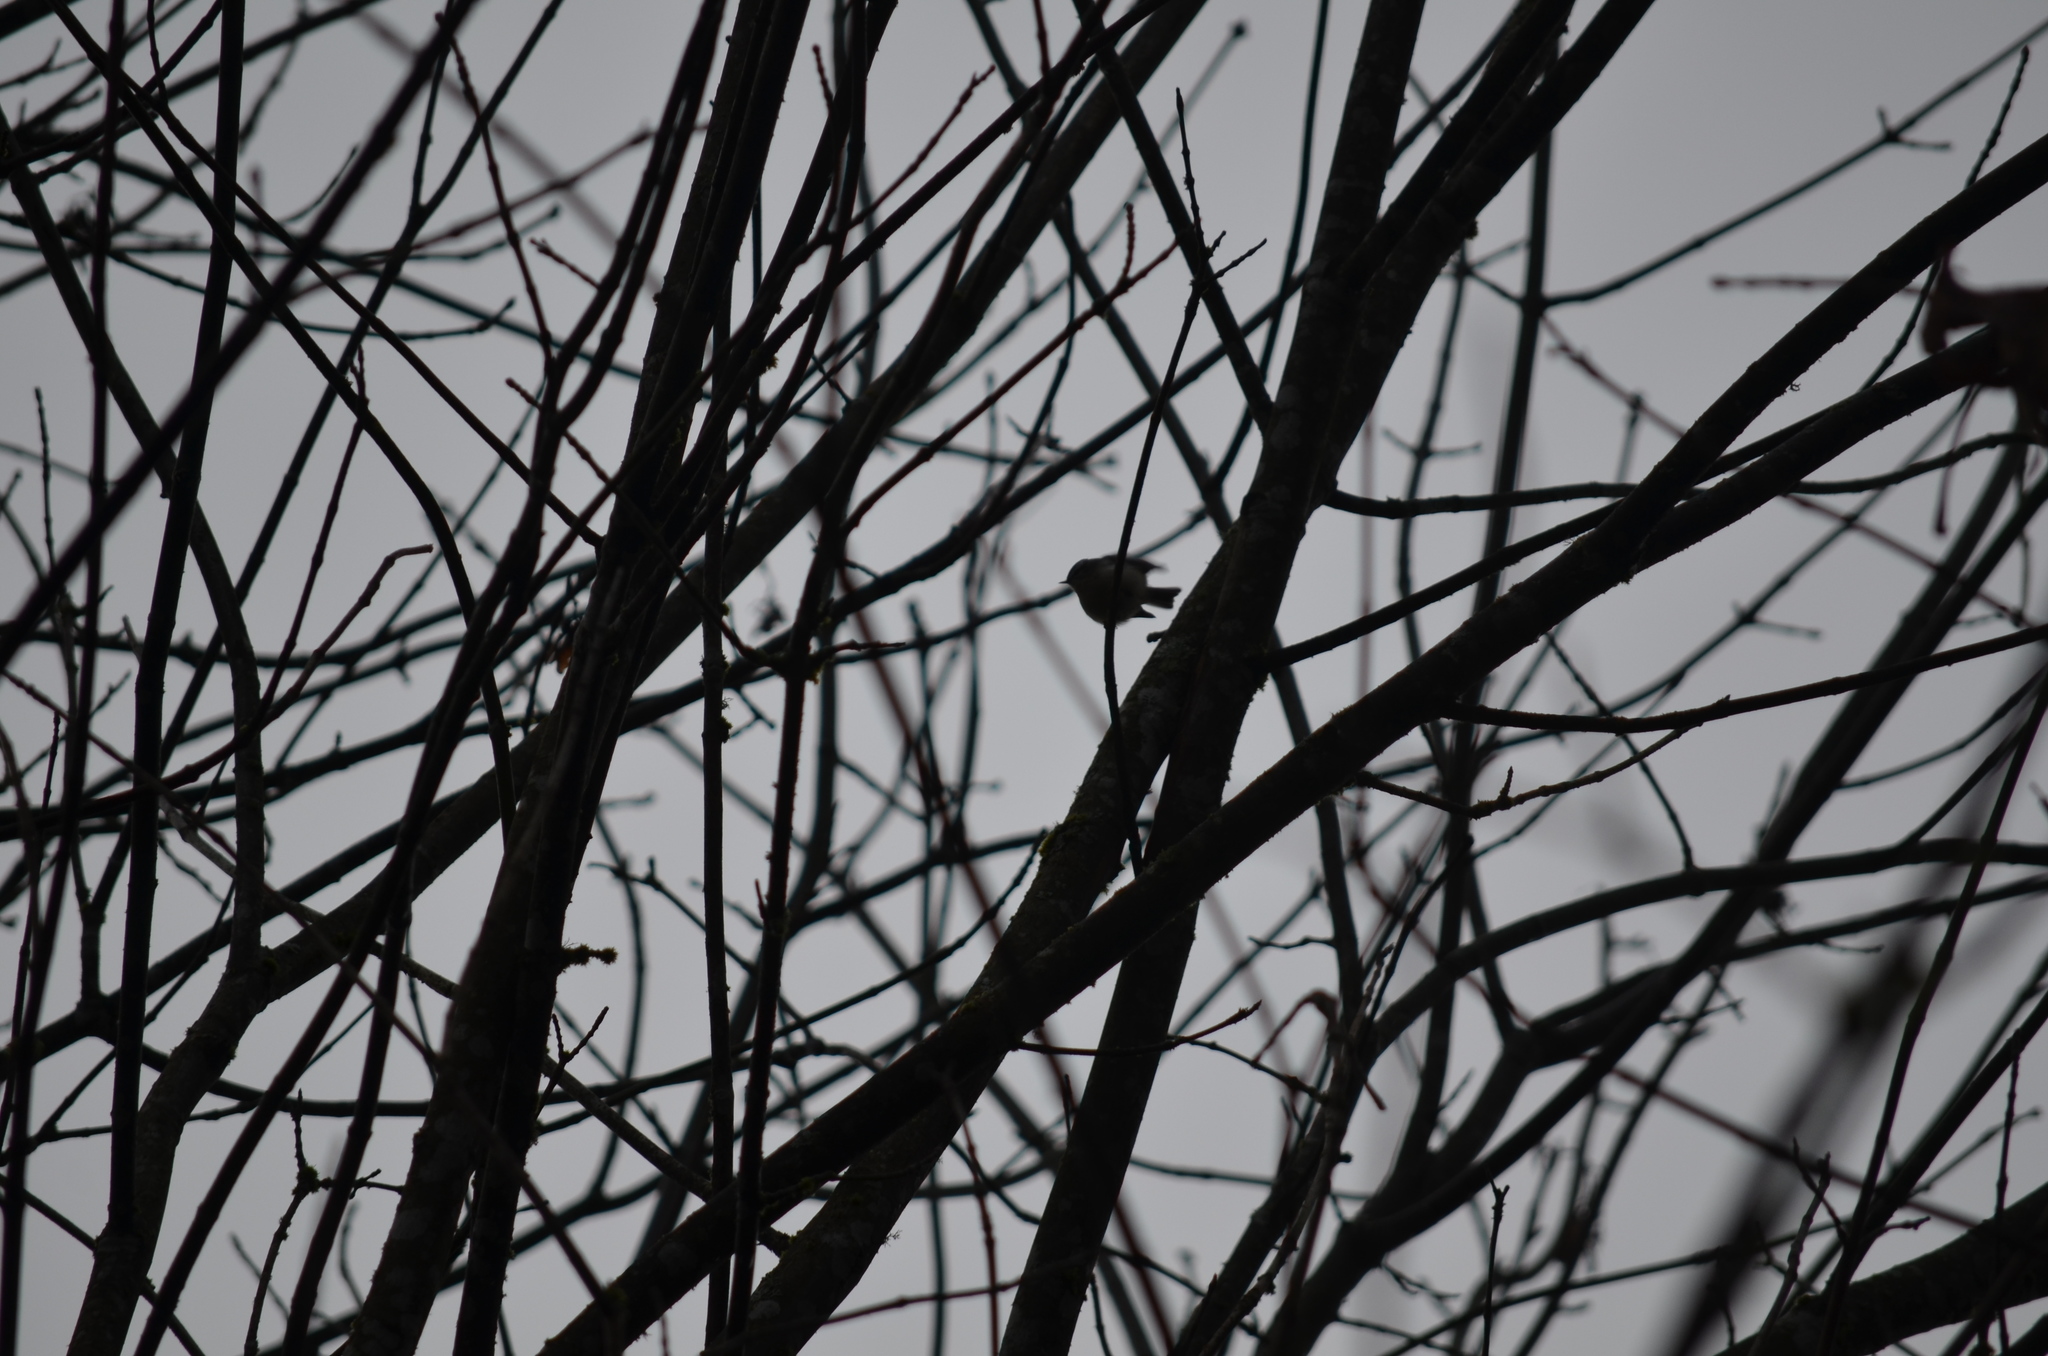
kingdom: Animalia
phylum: Chordata
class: Aves
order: Passeriformes
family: Regulidae
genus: Regulus
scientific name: Regulus satrapa
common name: Golden-crowned kinglet
